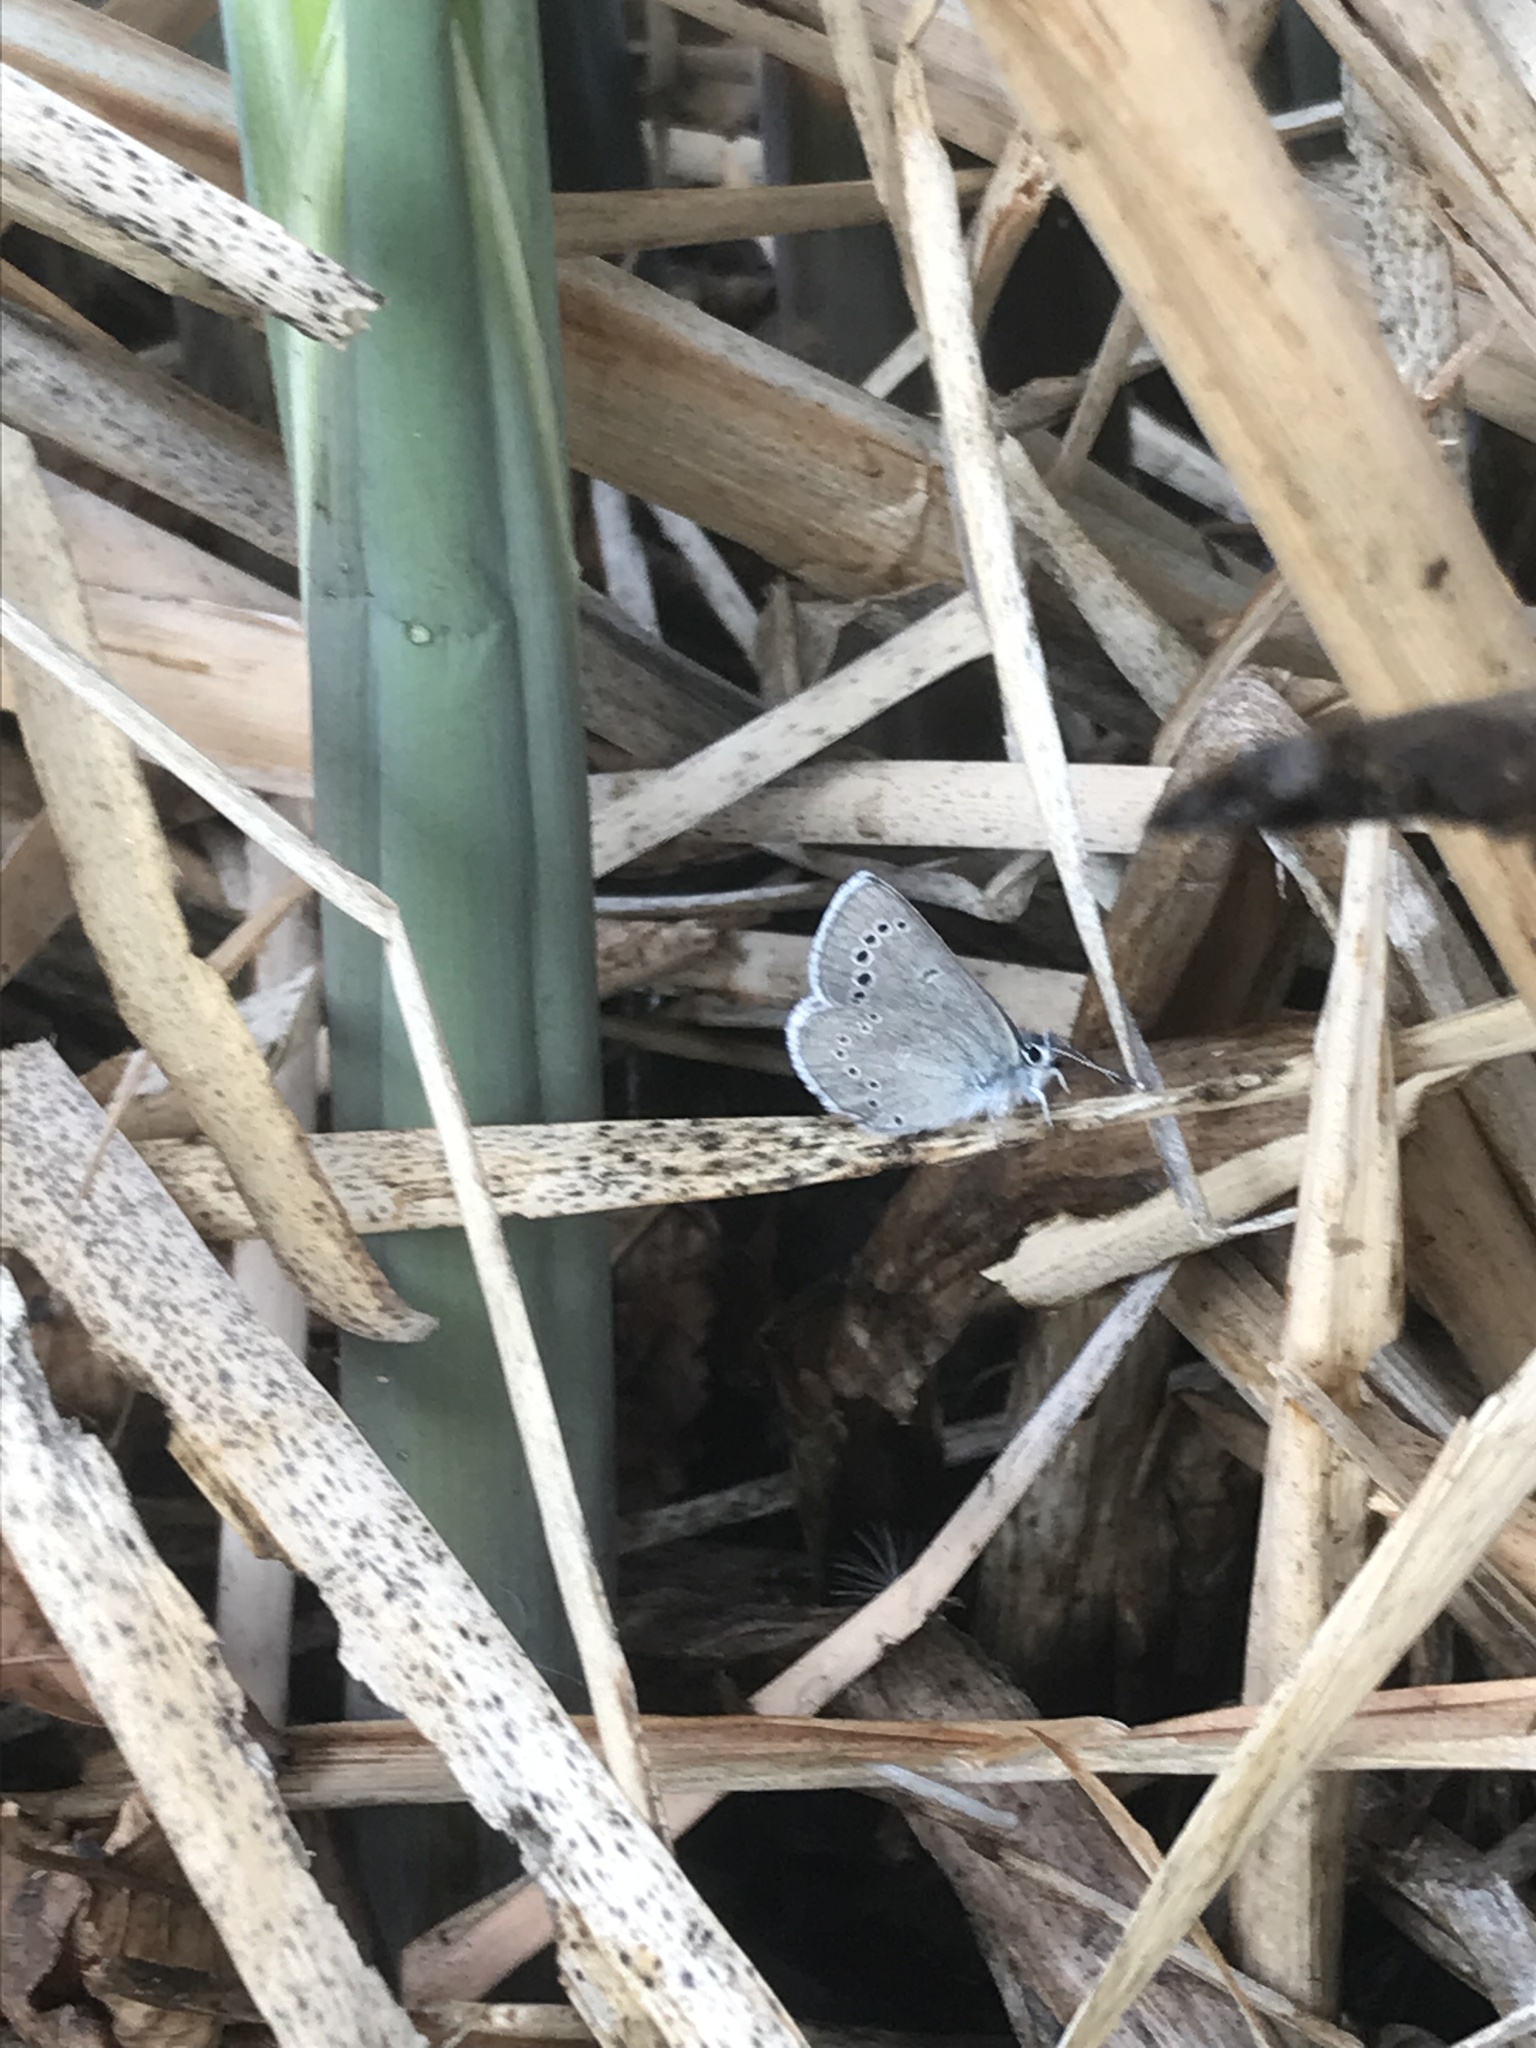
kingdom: Animalia
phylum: Arthropoda
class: Insecta
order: Lepidoptera
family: Lycaenidae
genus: Glaucopsyche
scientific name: Glaucopsyche lygdamus
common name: Silvery blue
